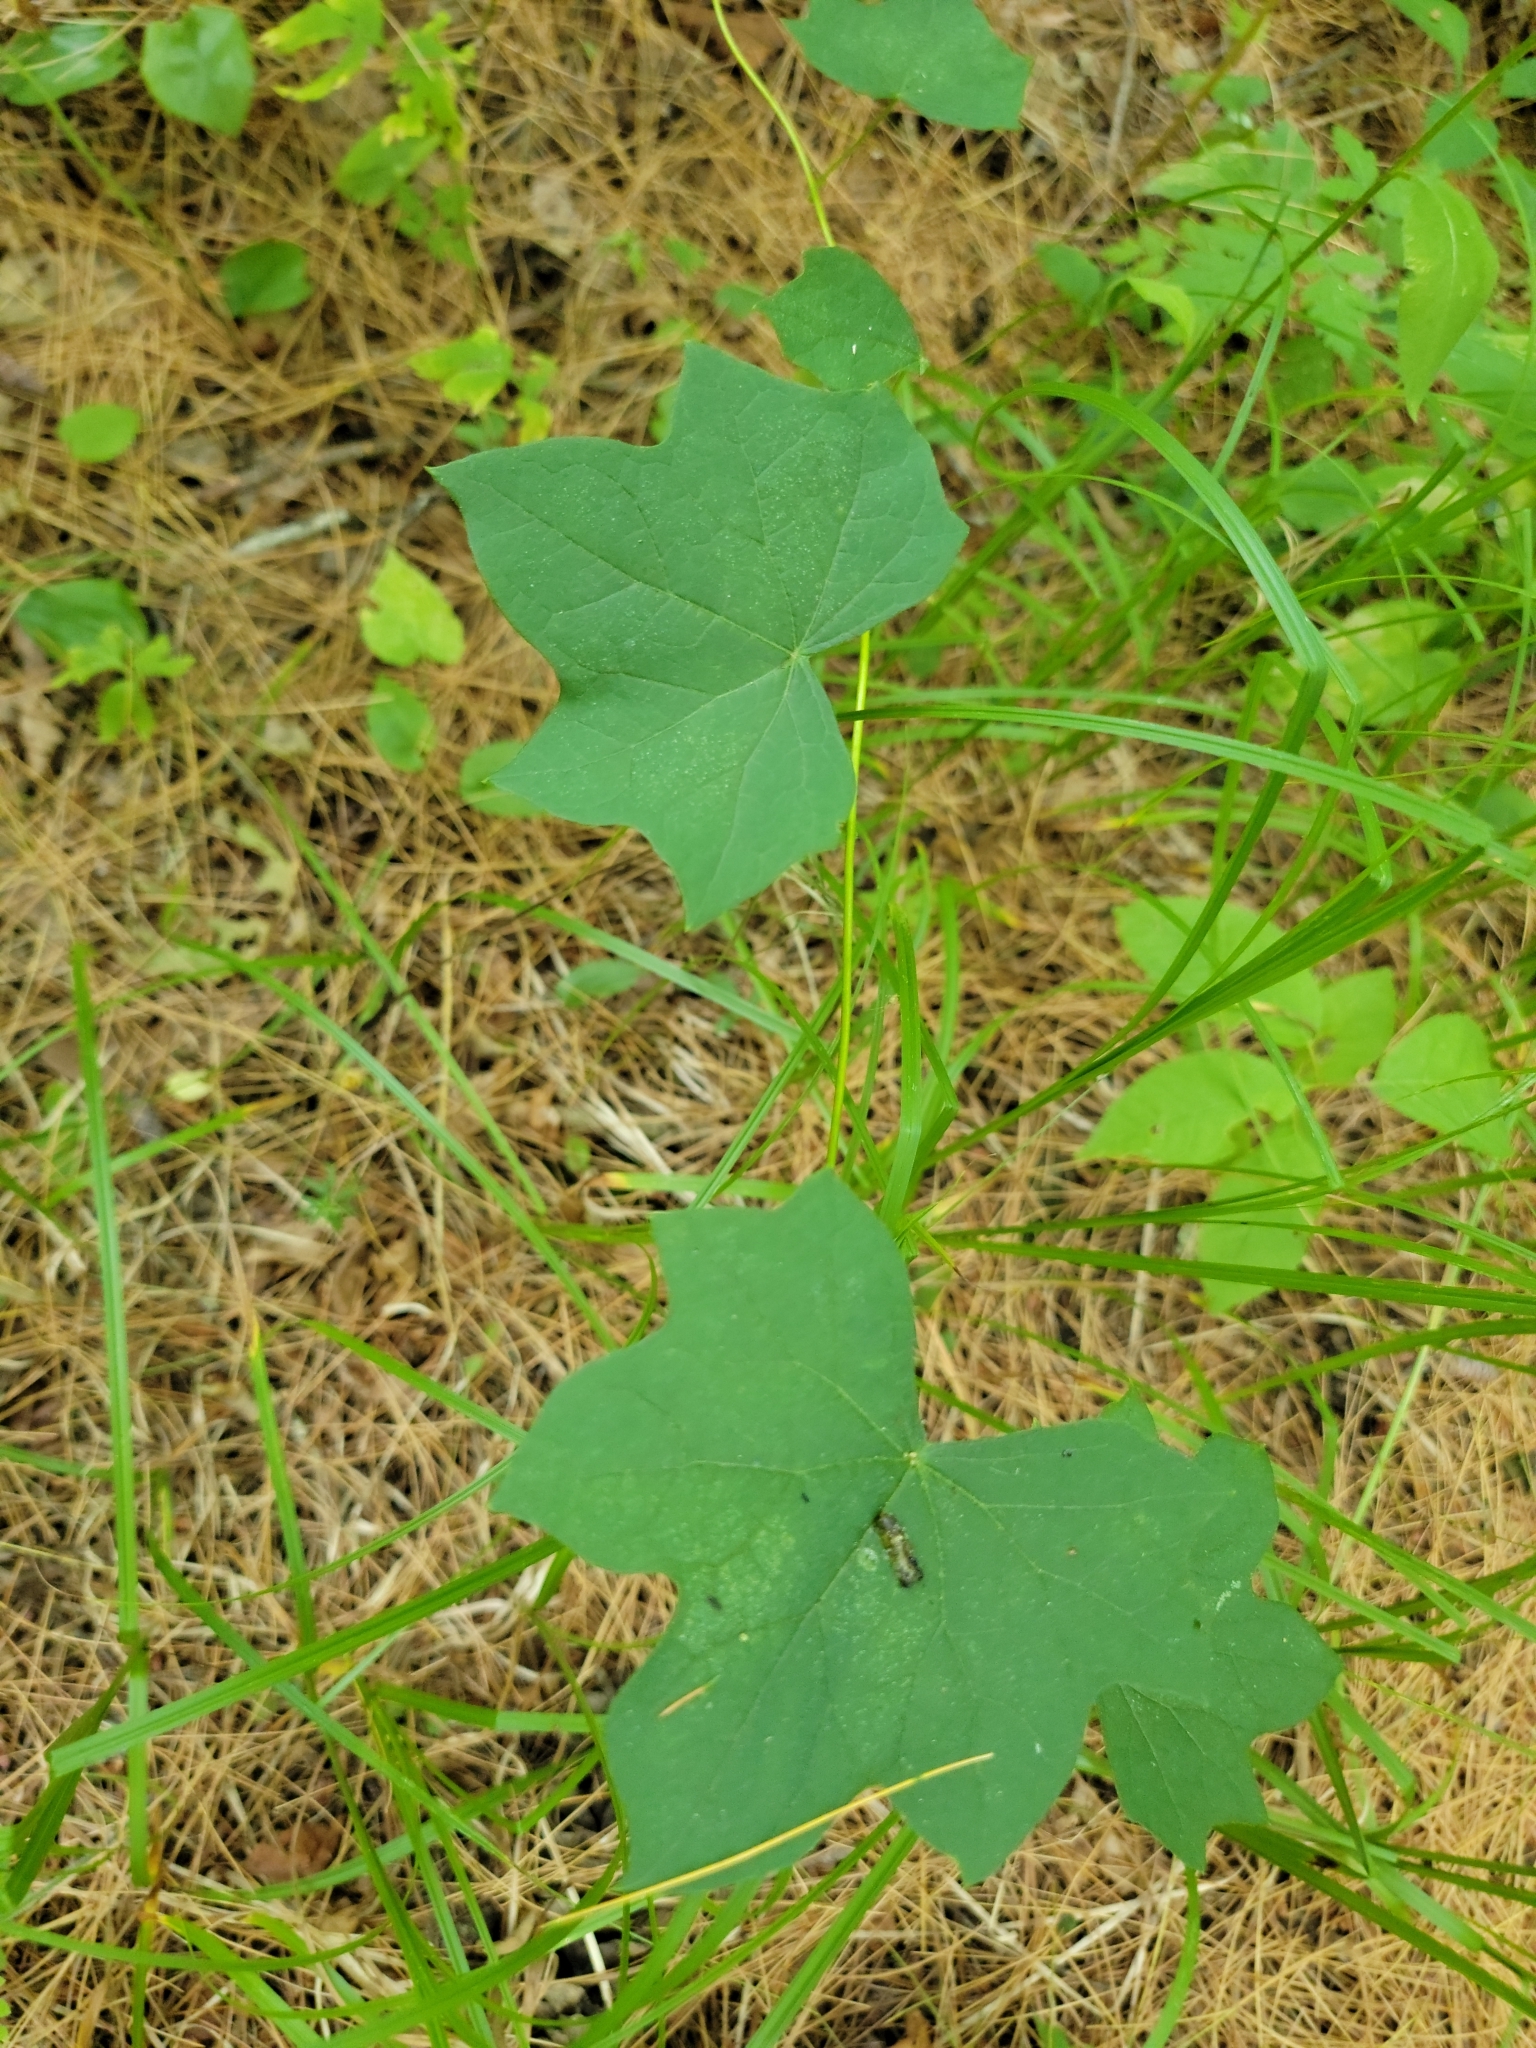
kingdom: Plantae
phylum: Tracheophyta
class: Magnoliopsida
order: Ranunculales
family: Menispermaceae
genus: Menispermum
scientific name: Menispermum canadense
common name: Moonseed
